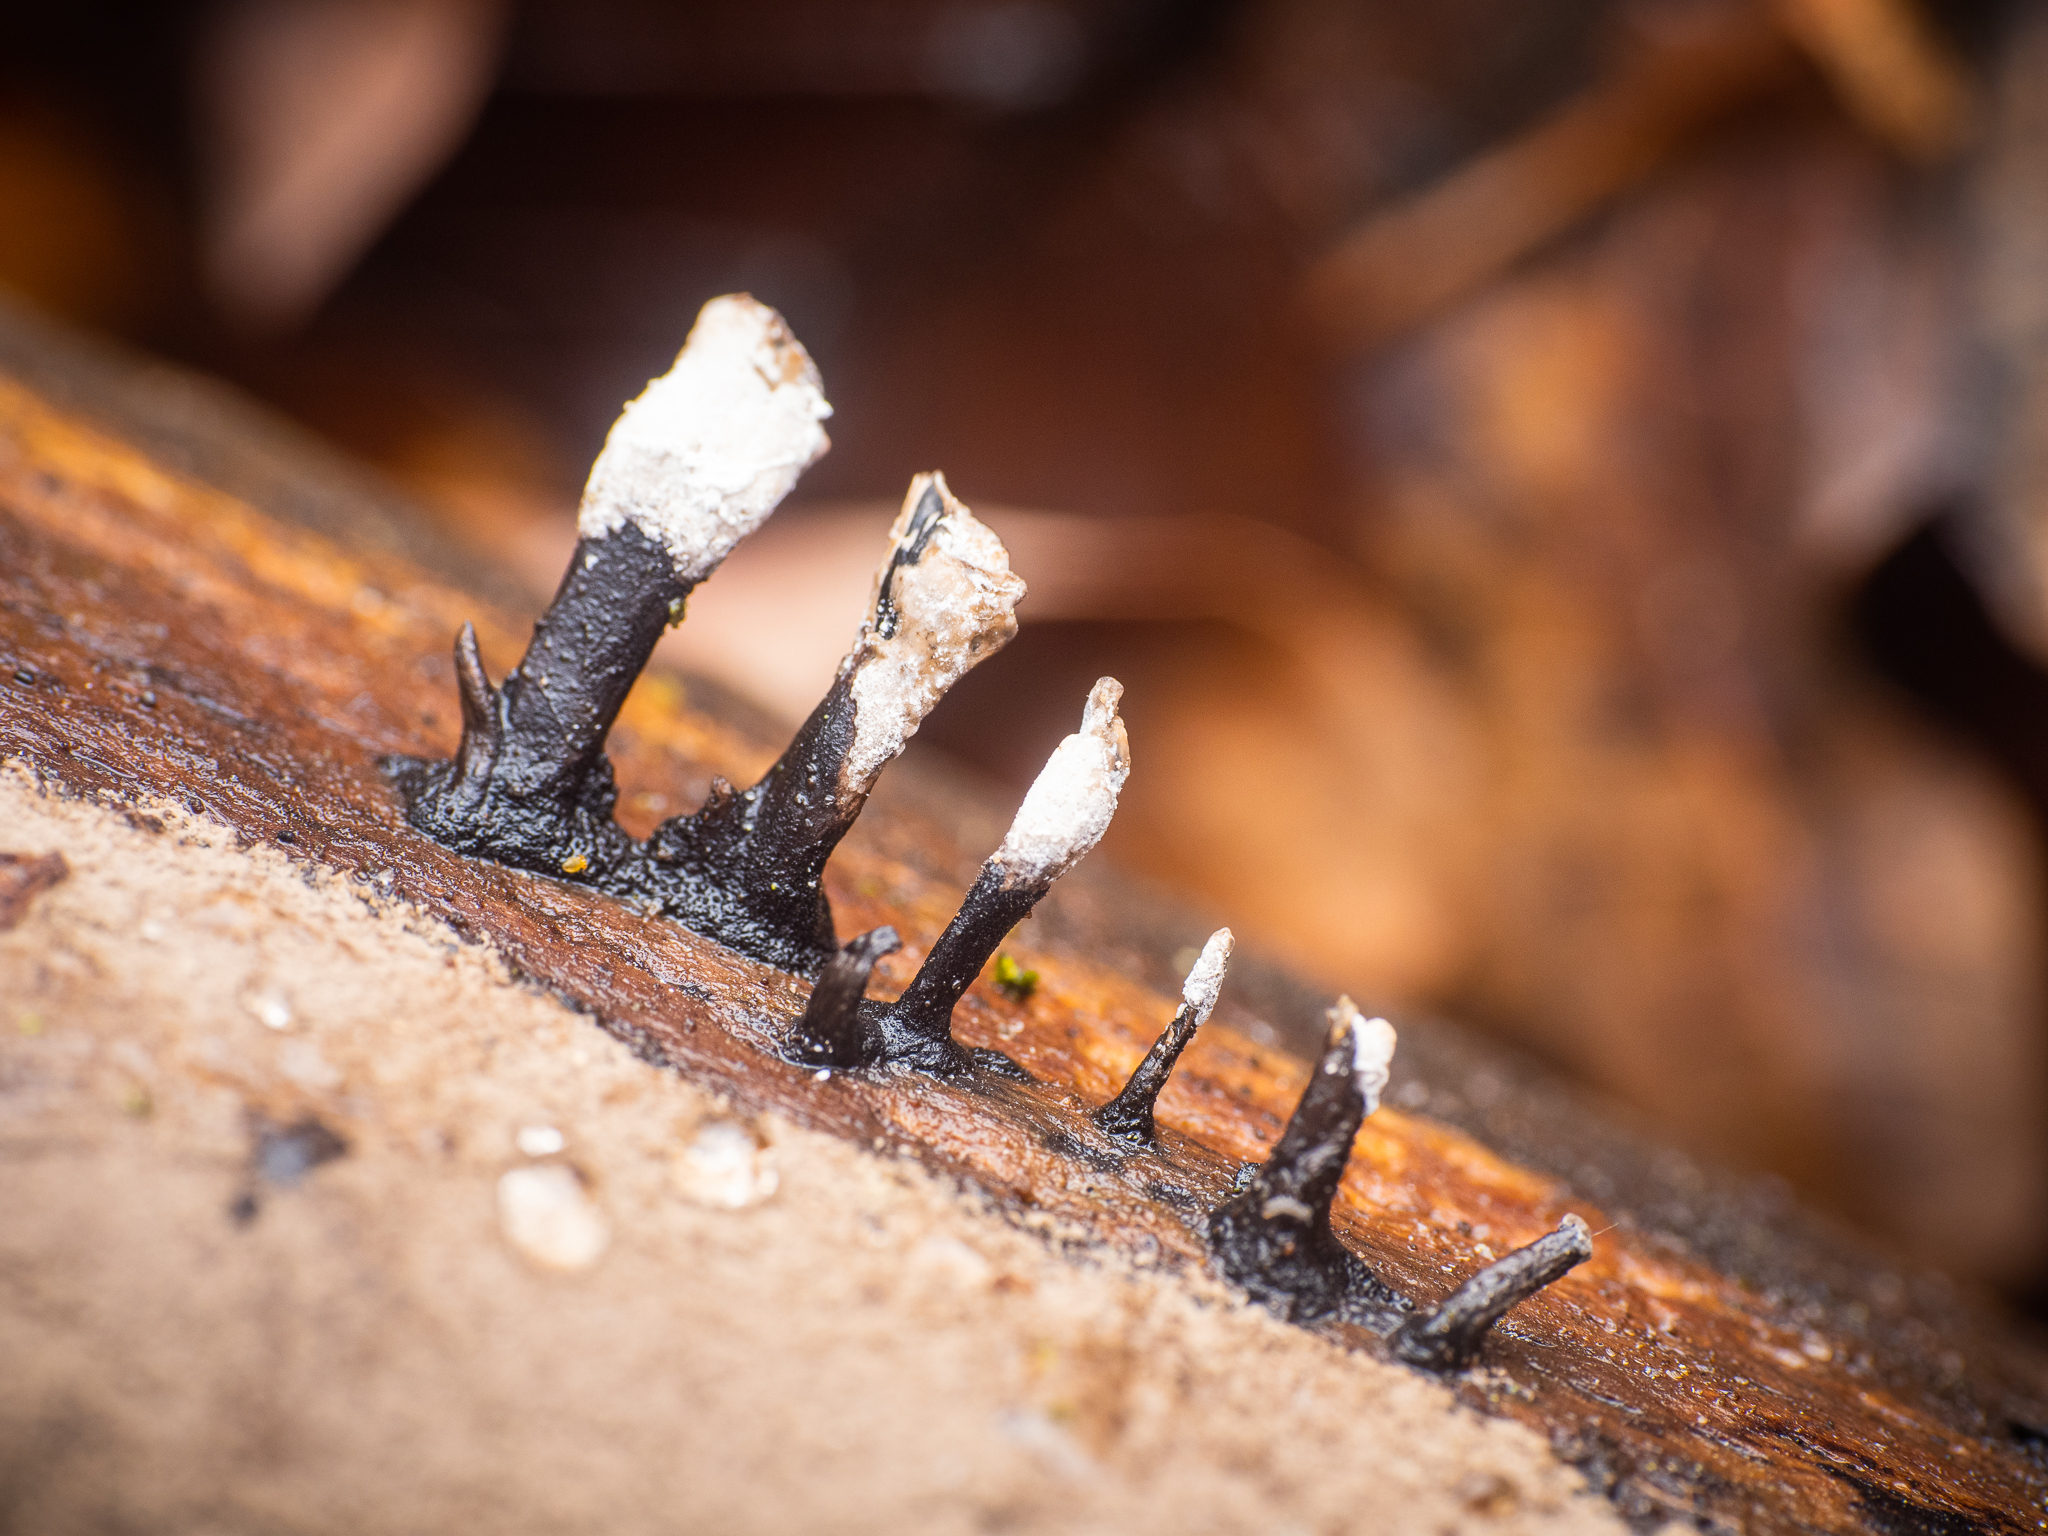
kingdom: Fungi
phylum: Ascomycota
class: Sordariomycetes
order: Xylariales
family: Xylariaceae
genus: Xylaria
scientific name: Xylaria hypoxylon
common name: Candle-snuff fungus
